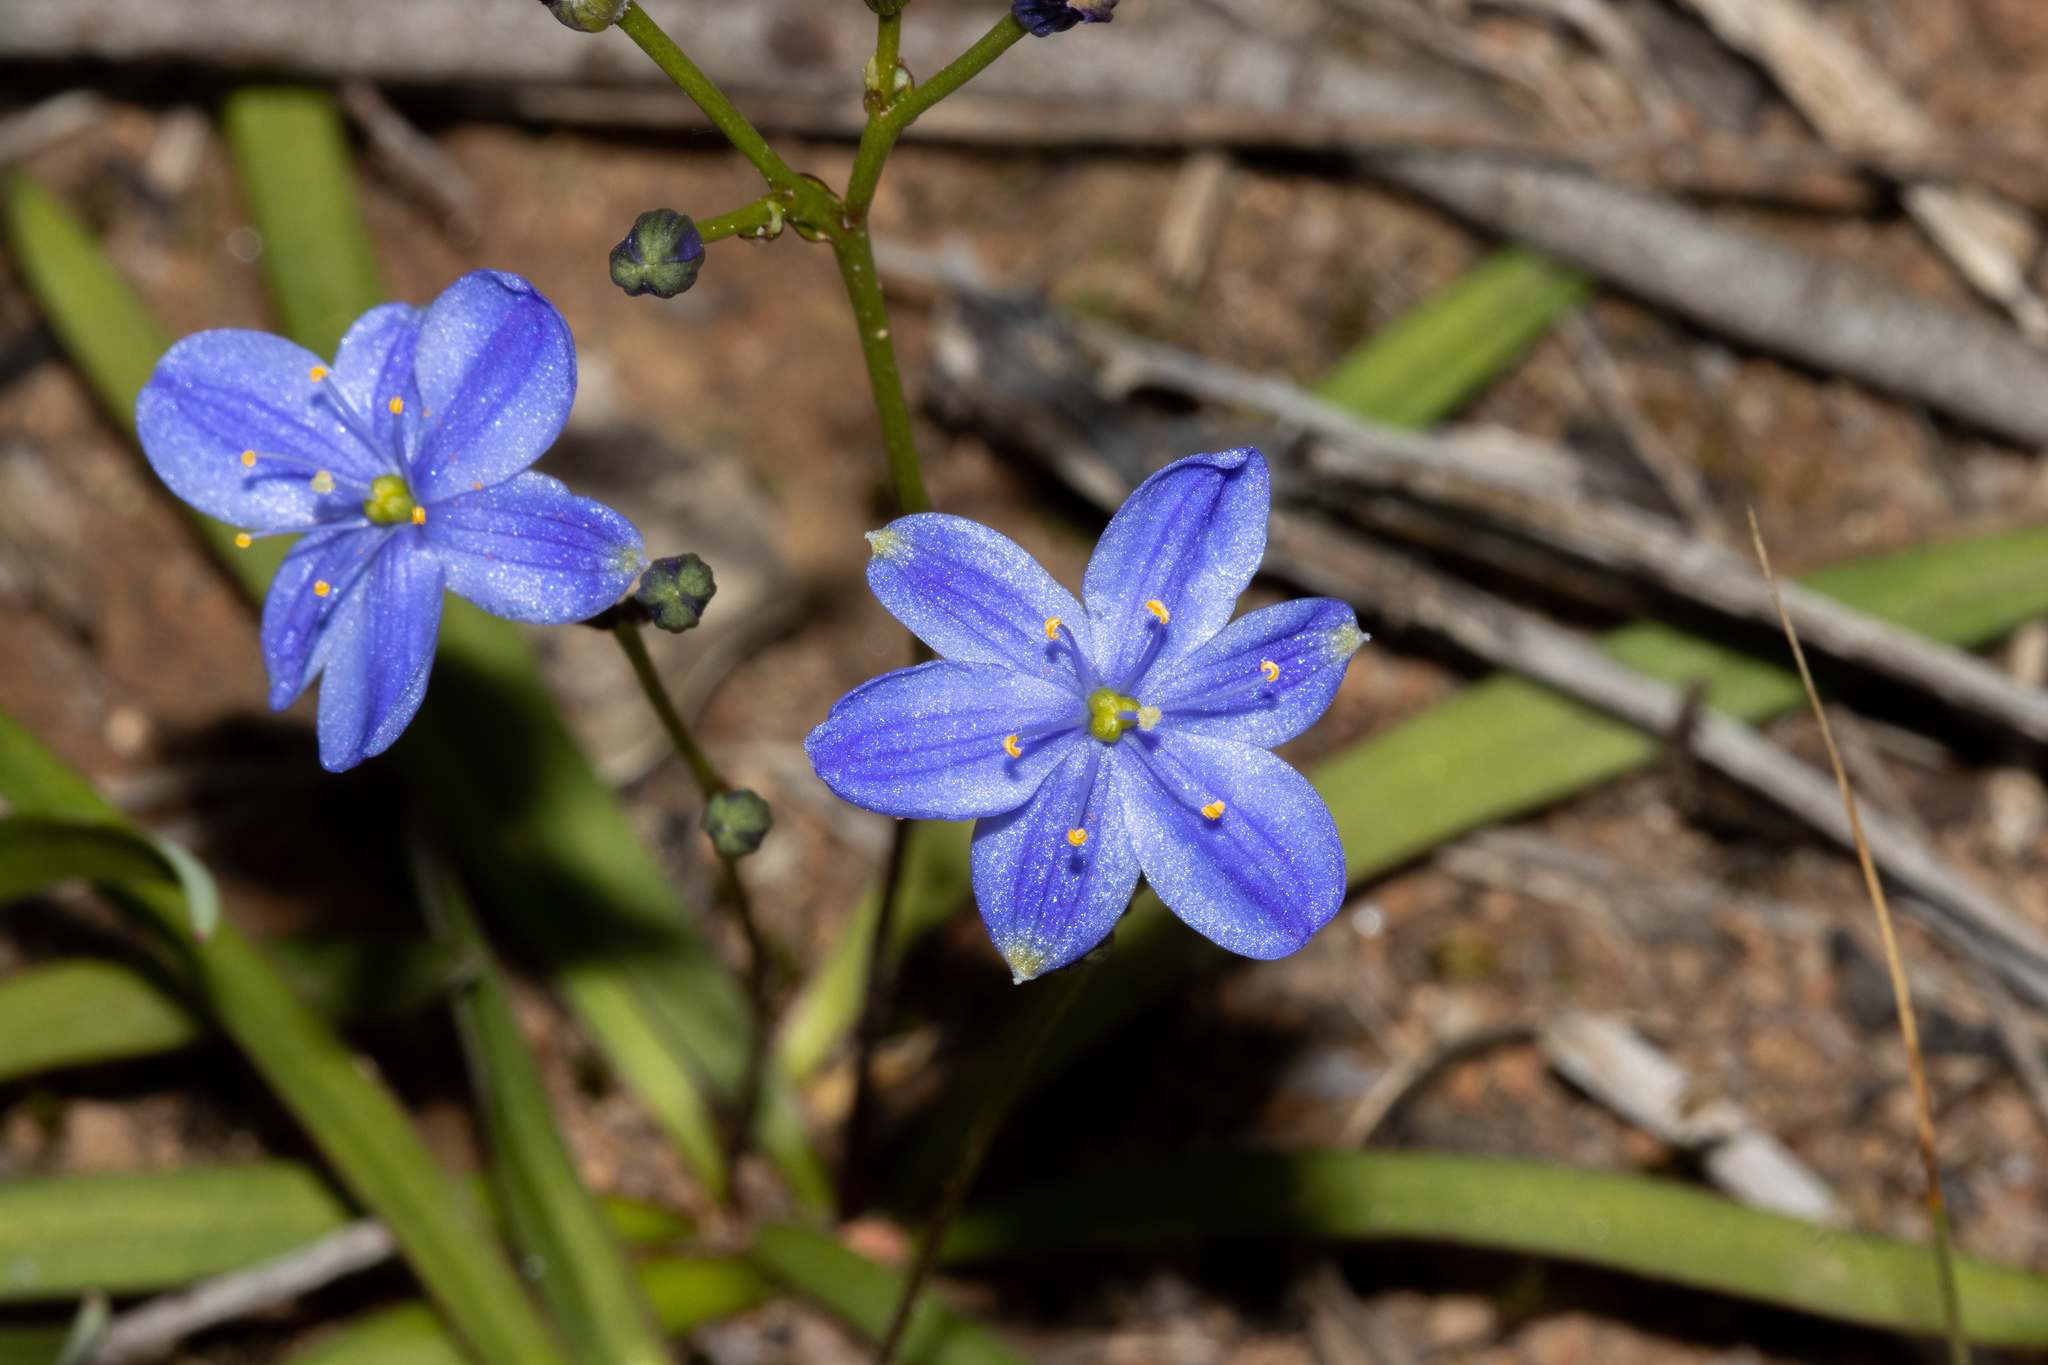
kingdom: Plantae
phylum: Tracheophyta
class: Liliopsida
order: Asparagales
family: Asphodelaceae
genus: Chamaescilla
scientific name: Chamaescilla corymbosa
